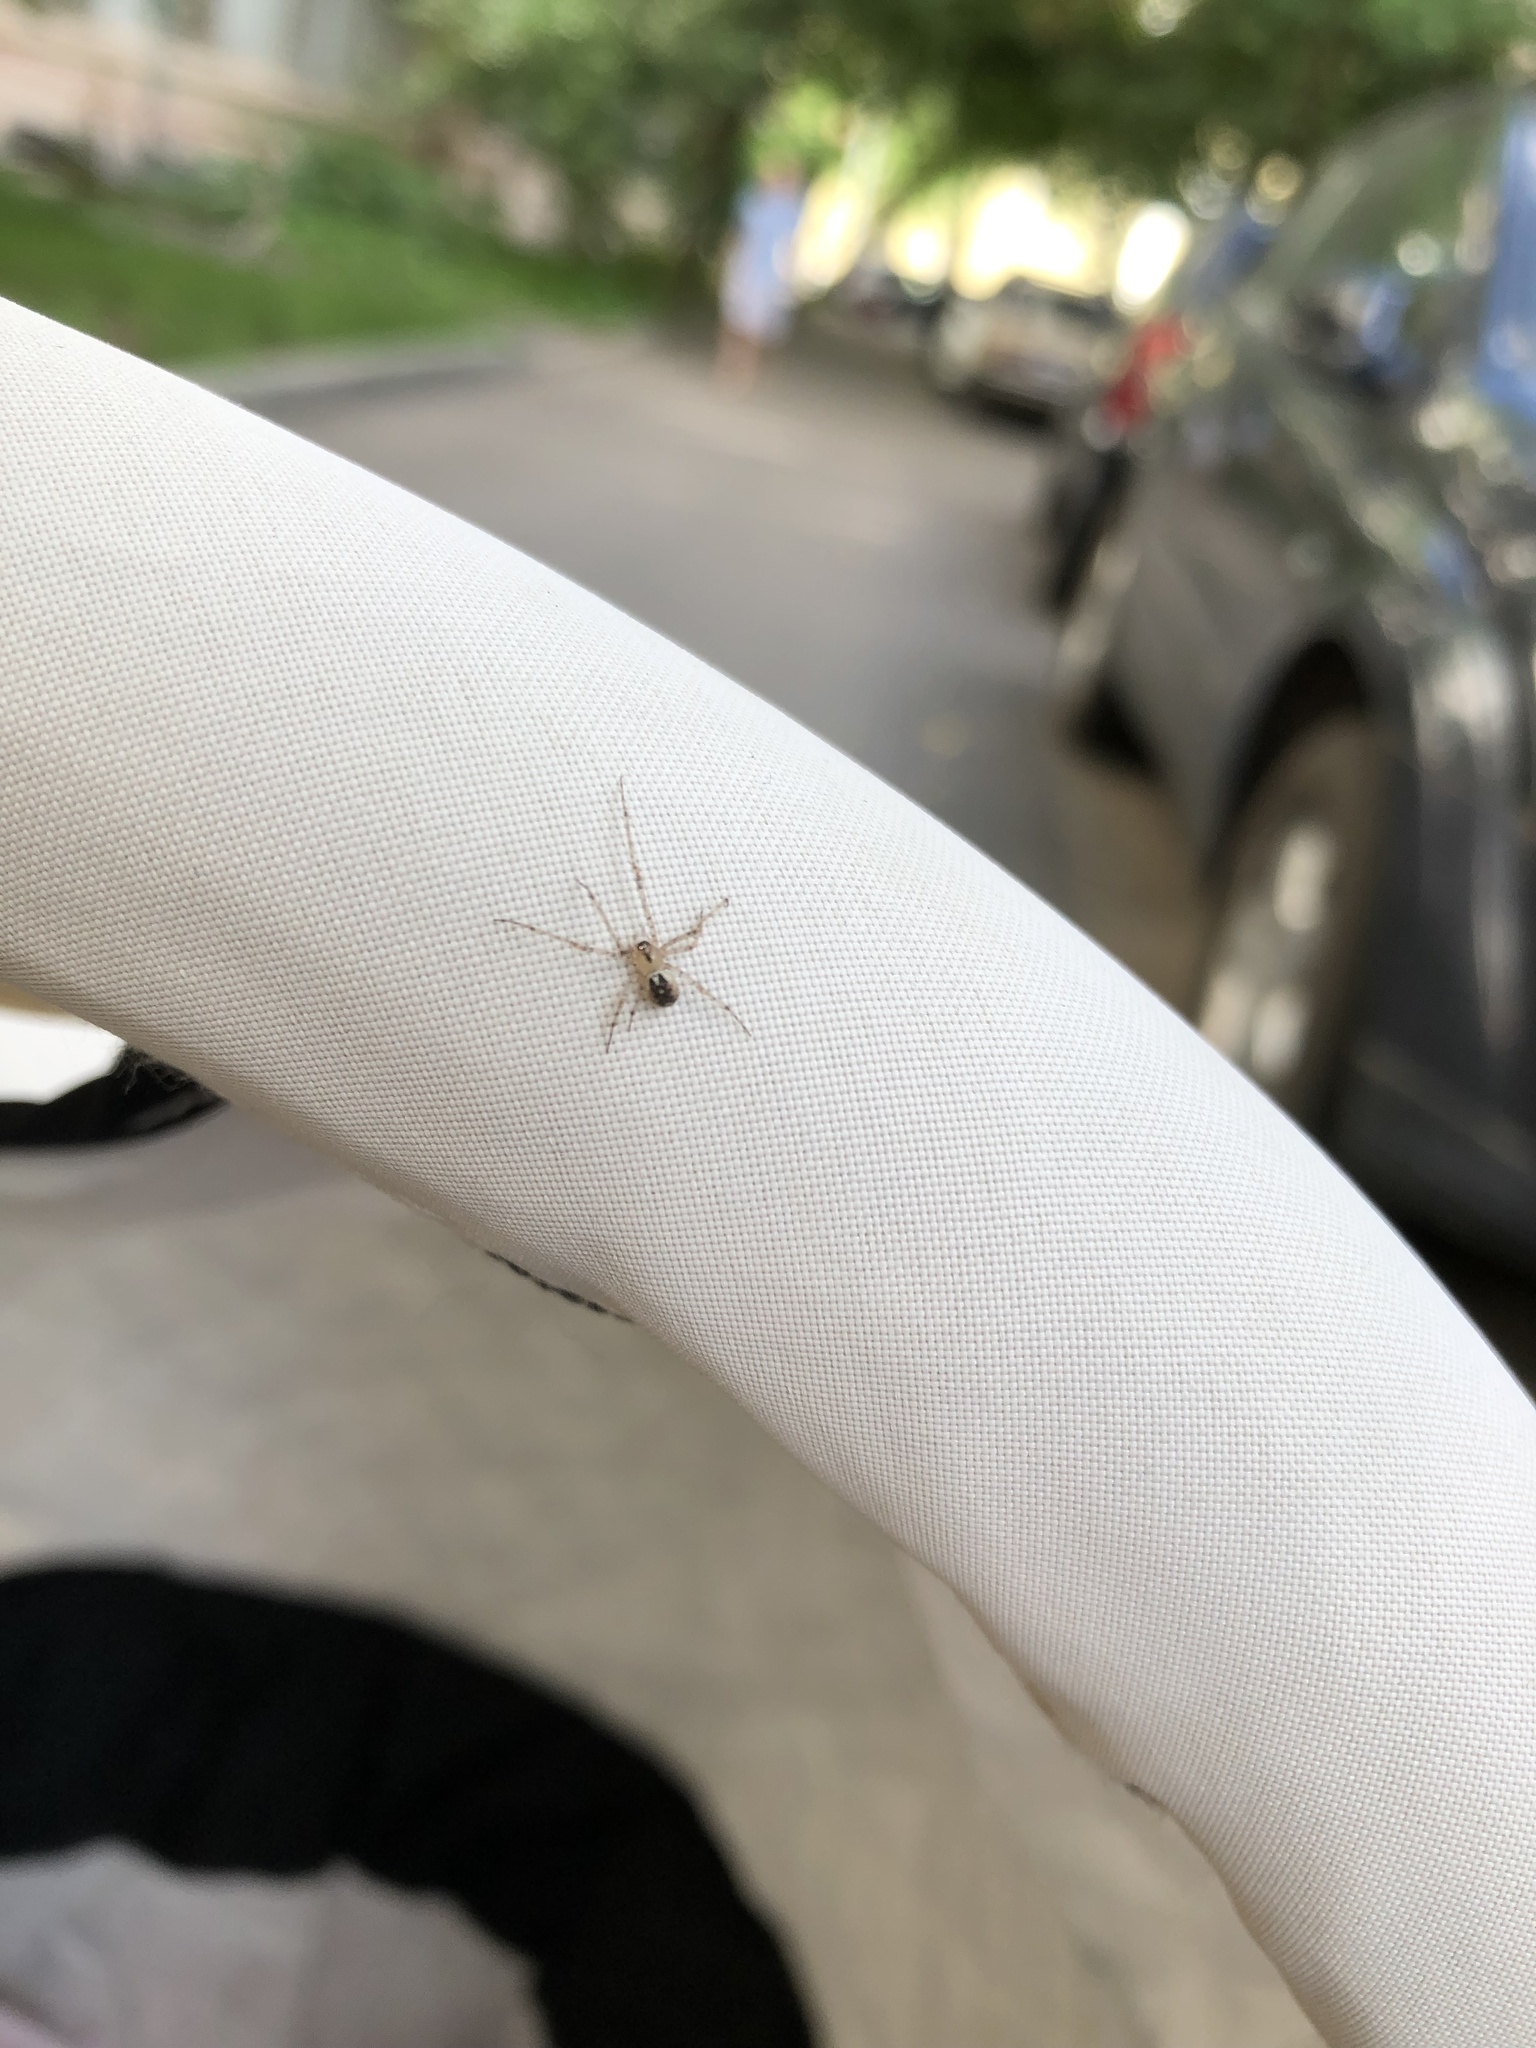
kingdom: Animalia
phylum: Arthropoda
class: Arachnida
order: Araneae
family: Theridiidae
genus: Platnickina
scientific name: Platnickina tincta
